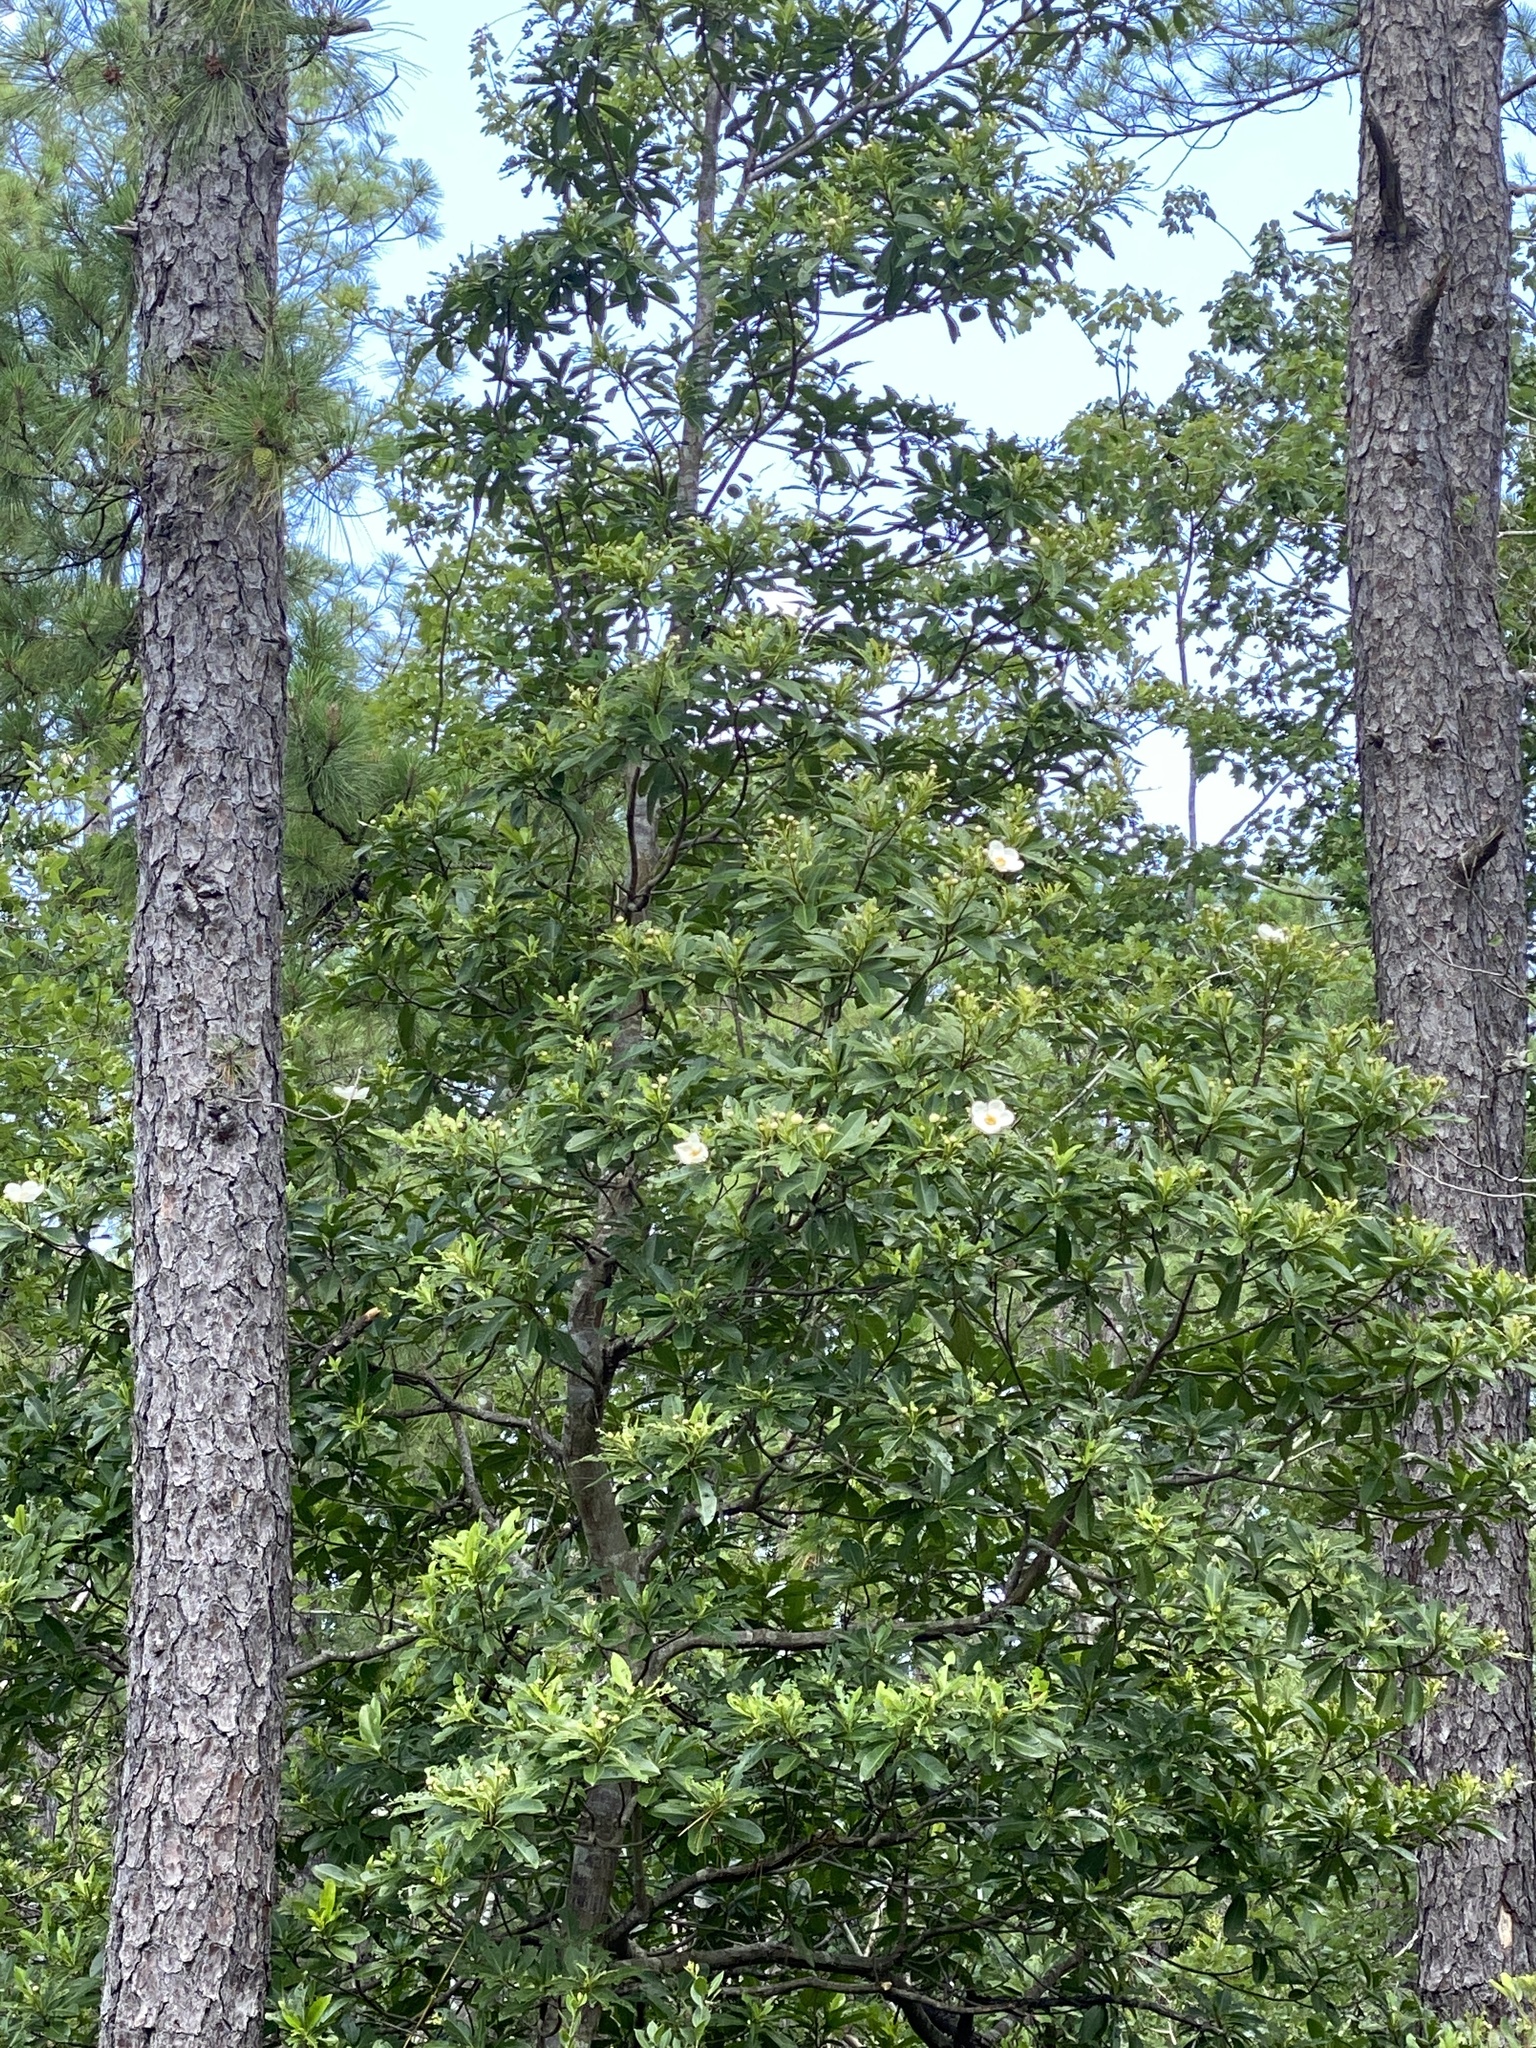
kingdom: Plantae
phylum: Tracheophyta
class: Magnoliopsida
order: Ericales
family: Theaceae
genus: Gordonia
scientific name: Gordonia lasianthus
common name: Loblolly bay
